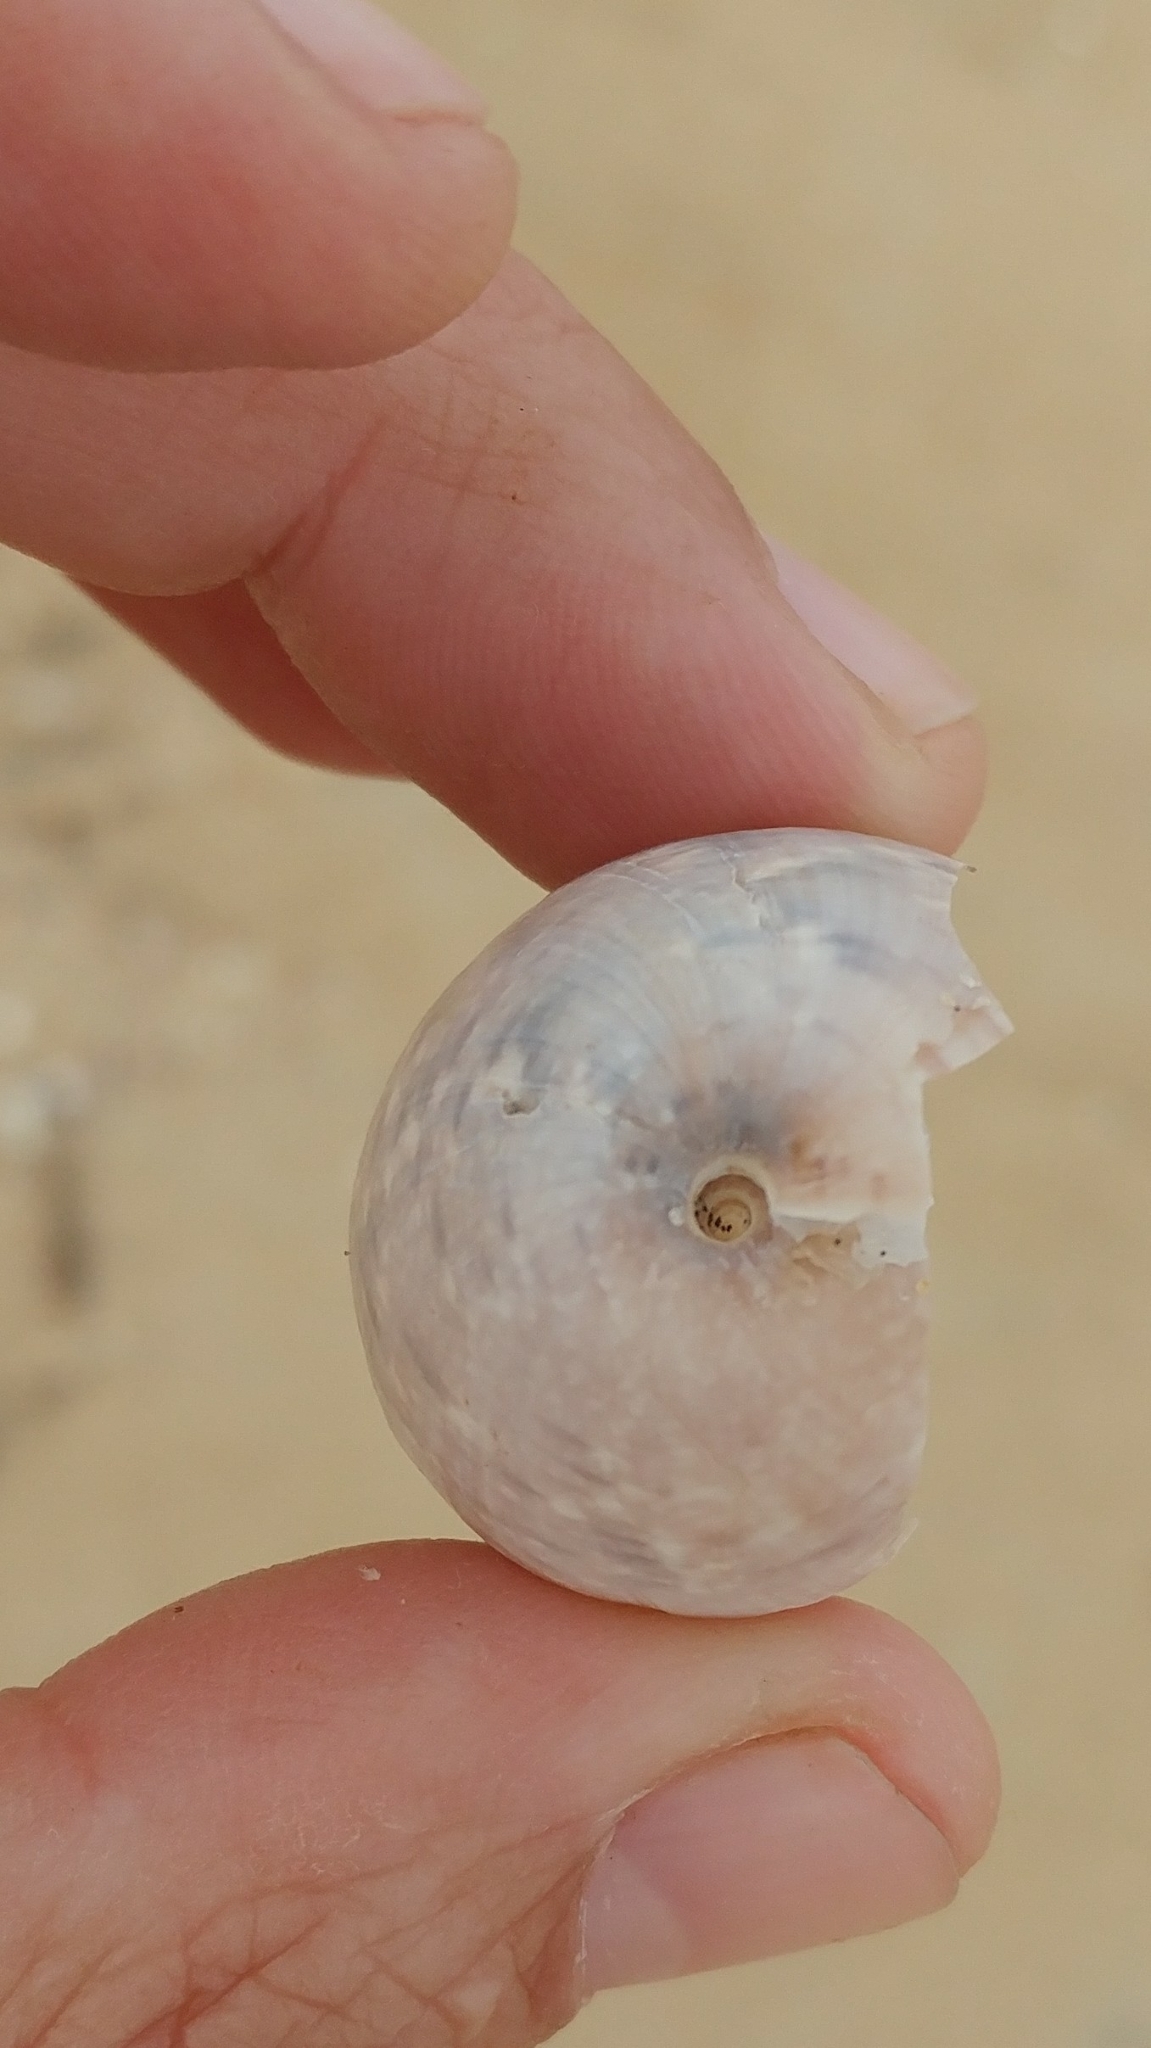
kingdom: Animalia
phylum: Mollusca
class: Gastropoda
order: Cephalaspidea
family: Bullidae
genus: Bulla
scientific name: Bulla gouldiana
